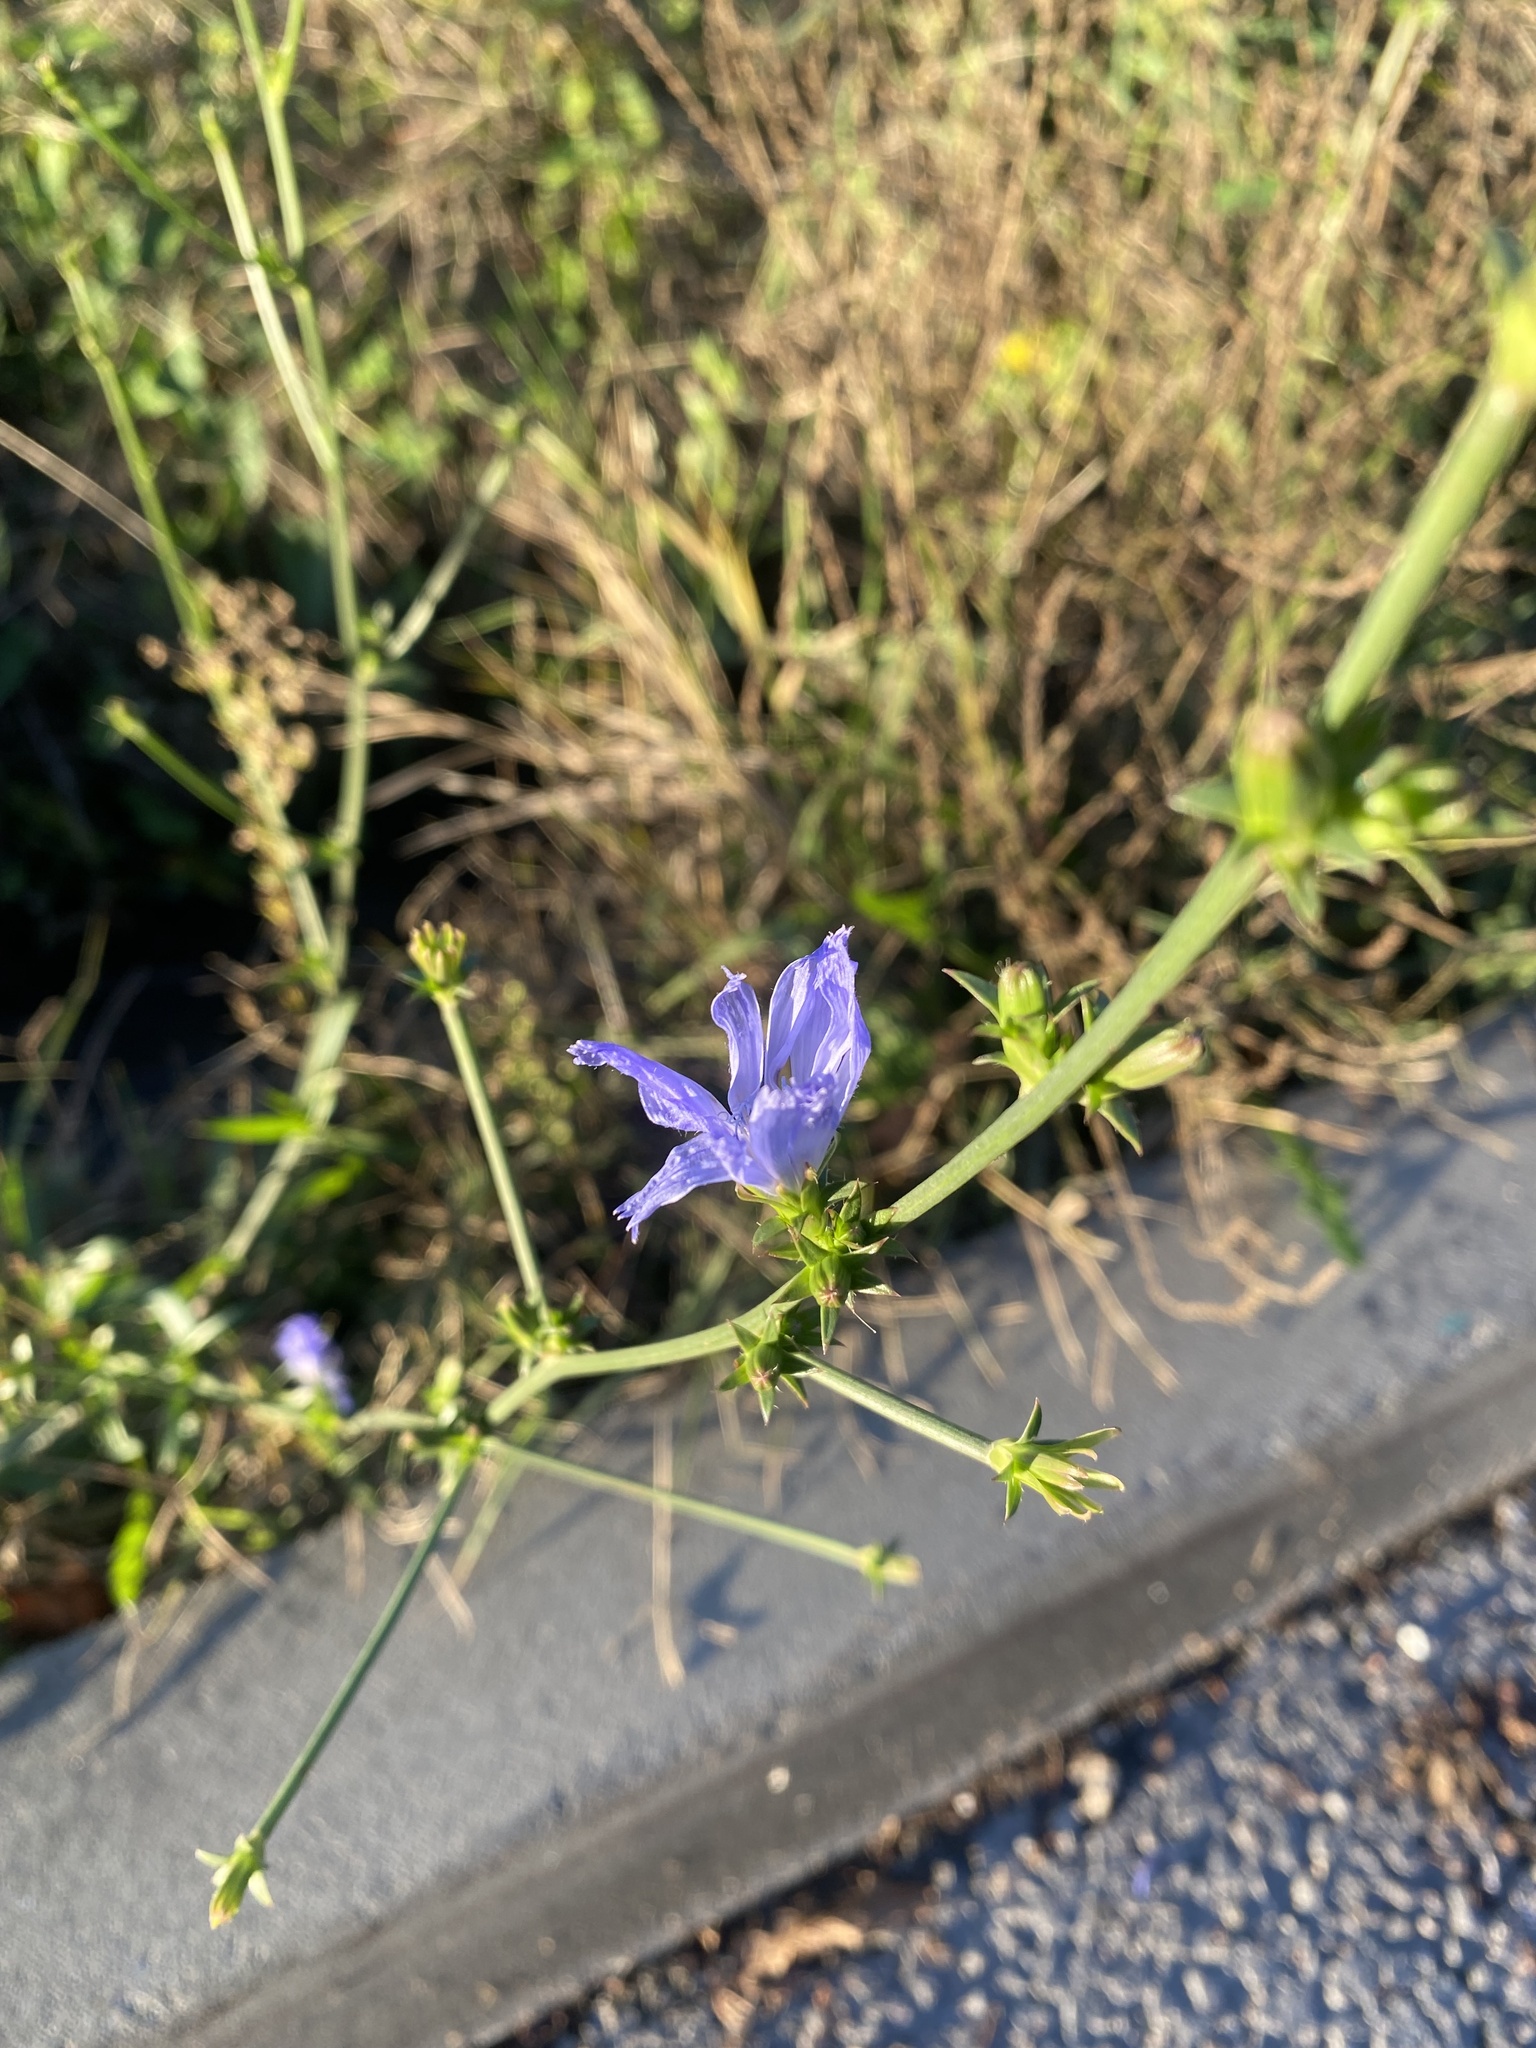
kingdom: Plantae
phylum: Tracheophyta
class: Magnoliopsida
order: Asterales
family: Asteraceae
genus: Cichorium
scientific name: Cichorium intybus
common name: Chicory
